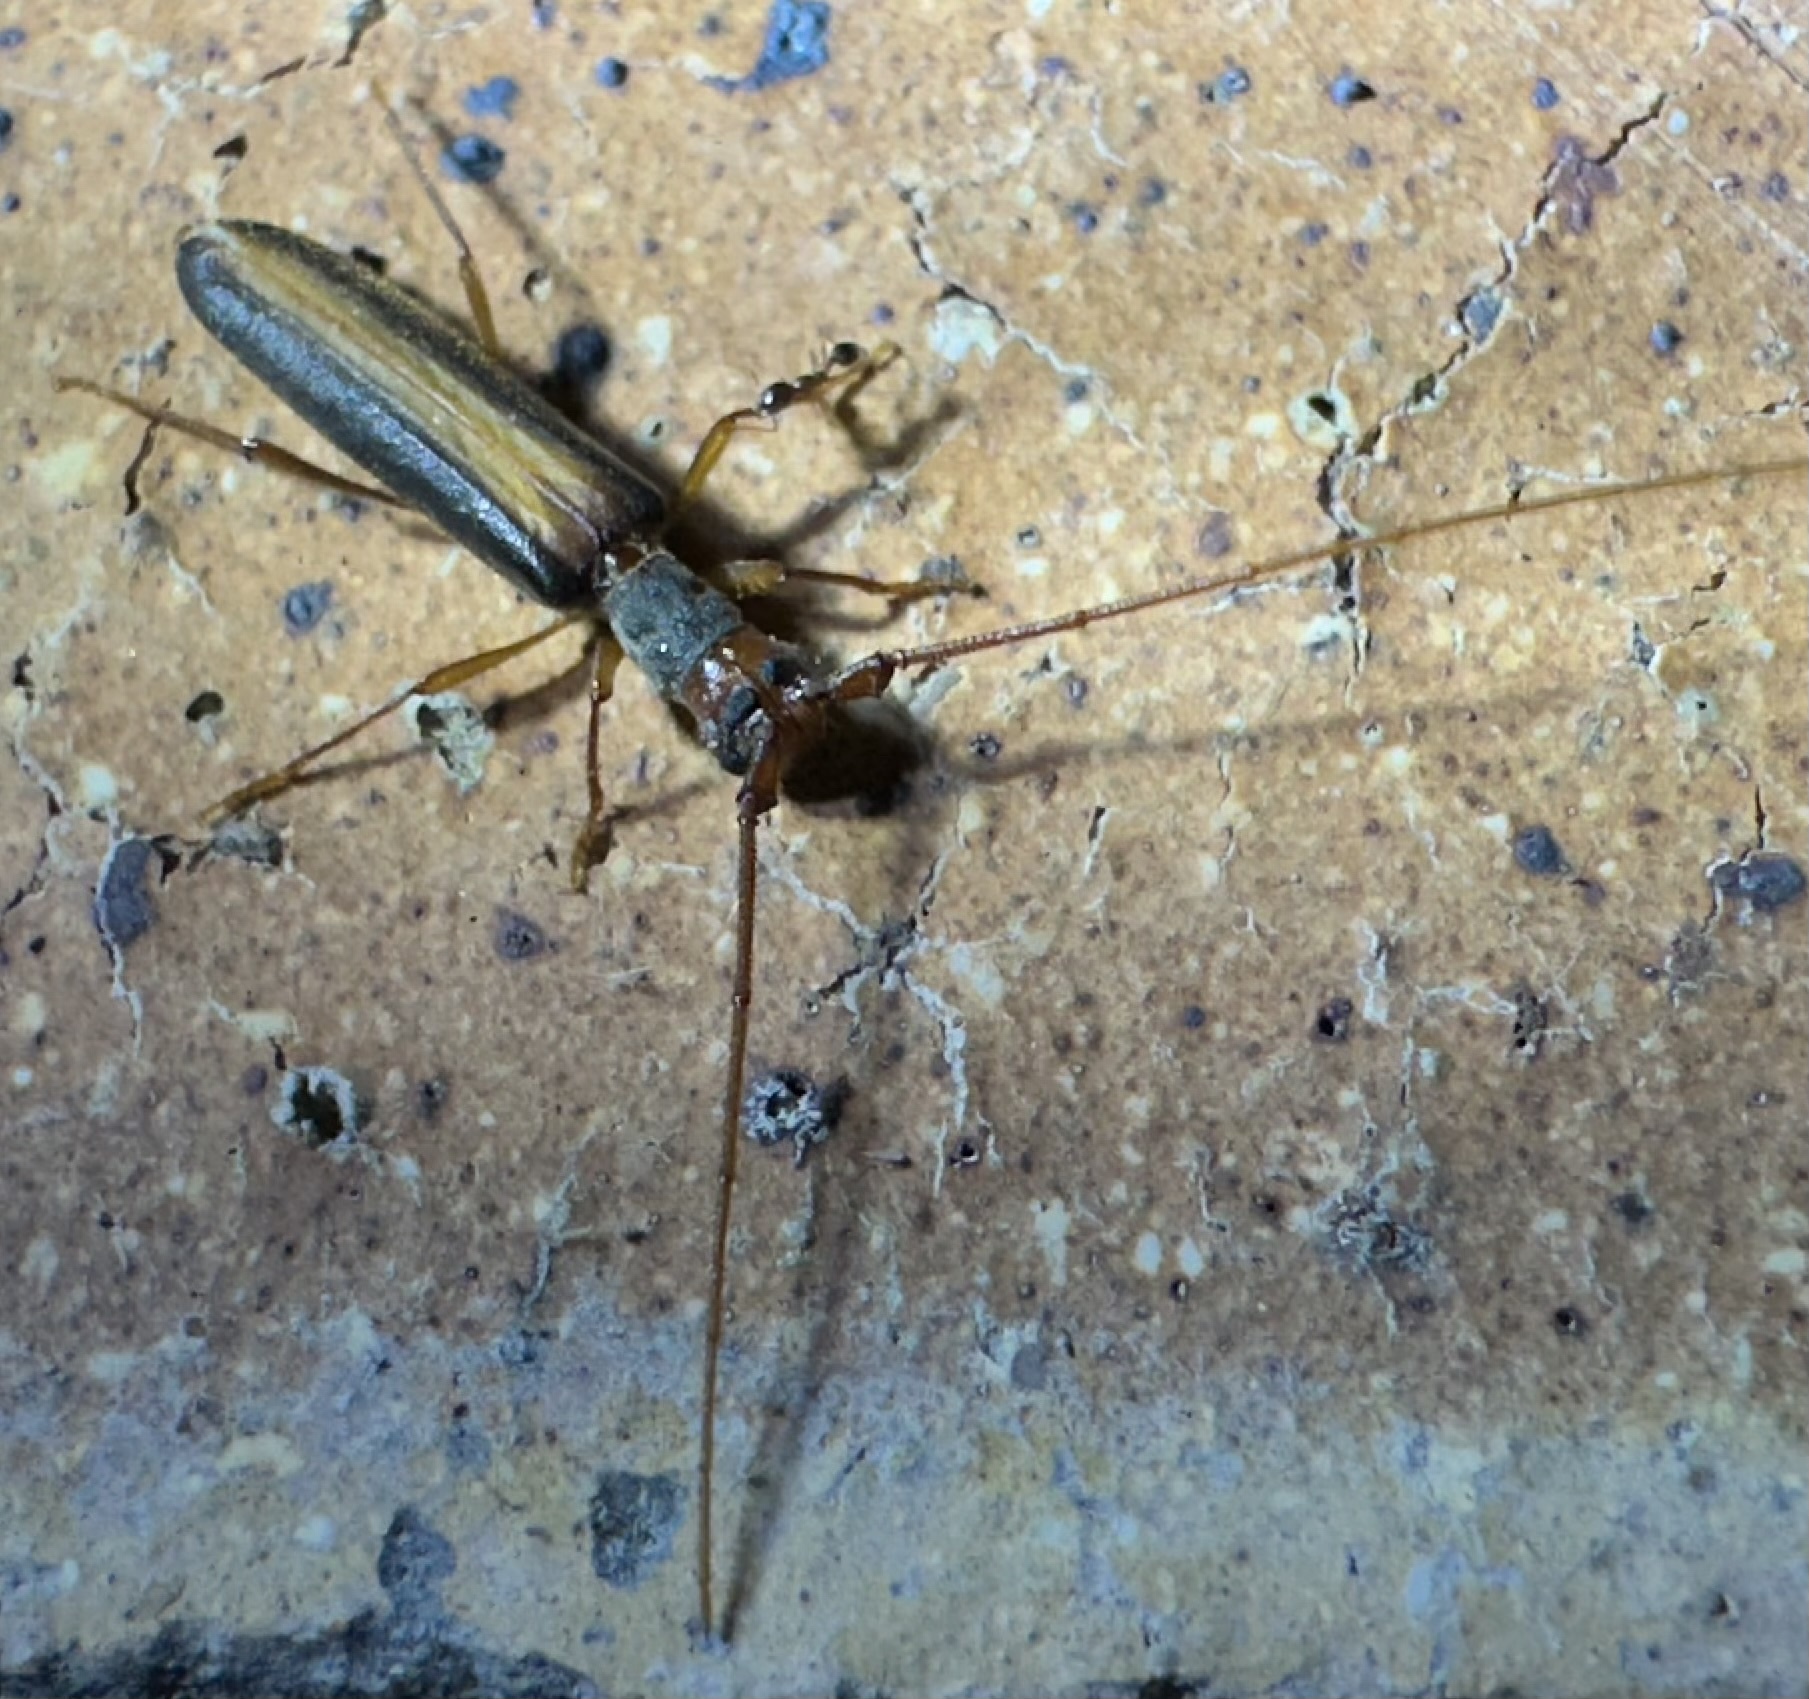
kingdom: Animalia
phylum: Arthropoda
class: Insecta
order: Coleoptera
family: Cerambycidae
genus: Diptychoeme
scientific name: Diptychoeme suturalis
